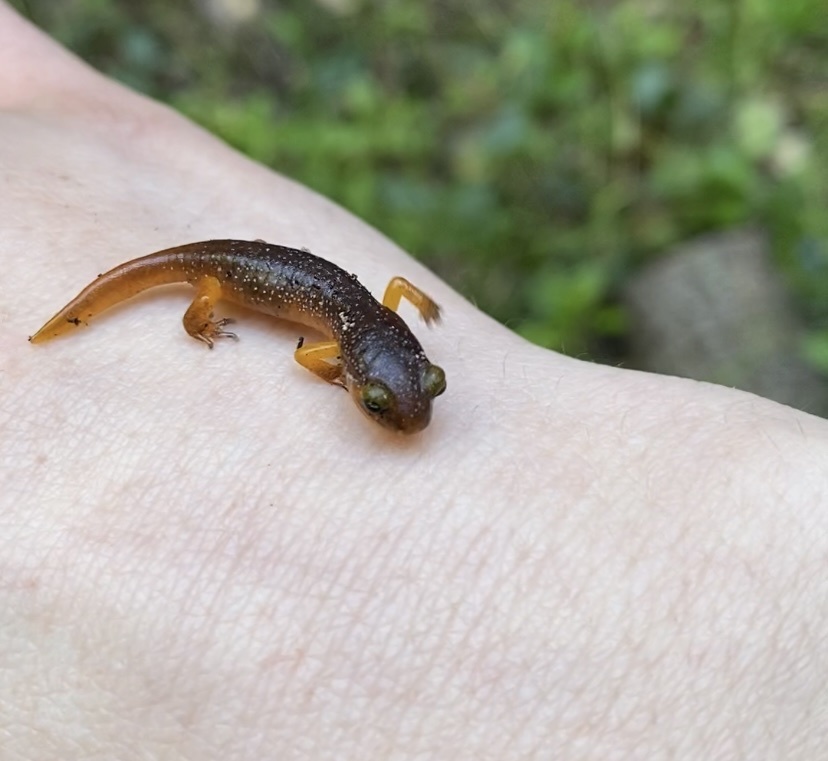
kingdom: Animalia
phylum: Chordata
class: Amphibia
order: Caudata
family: Plethodontidae
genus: Ensatina
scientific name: Ensatina eschscholtzii
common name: Ensatina
